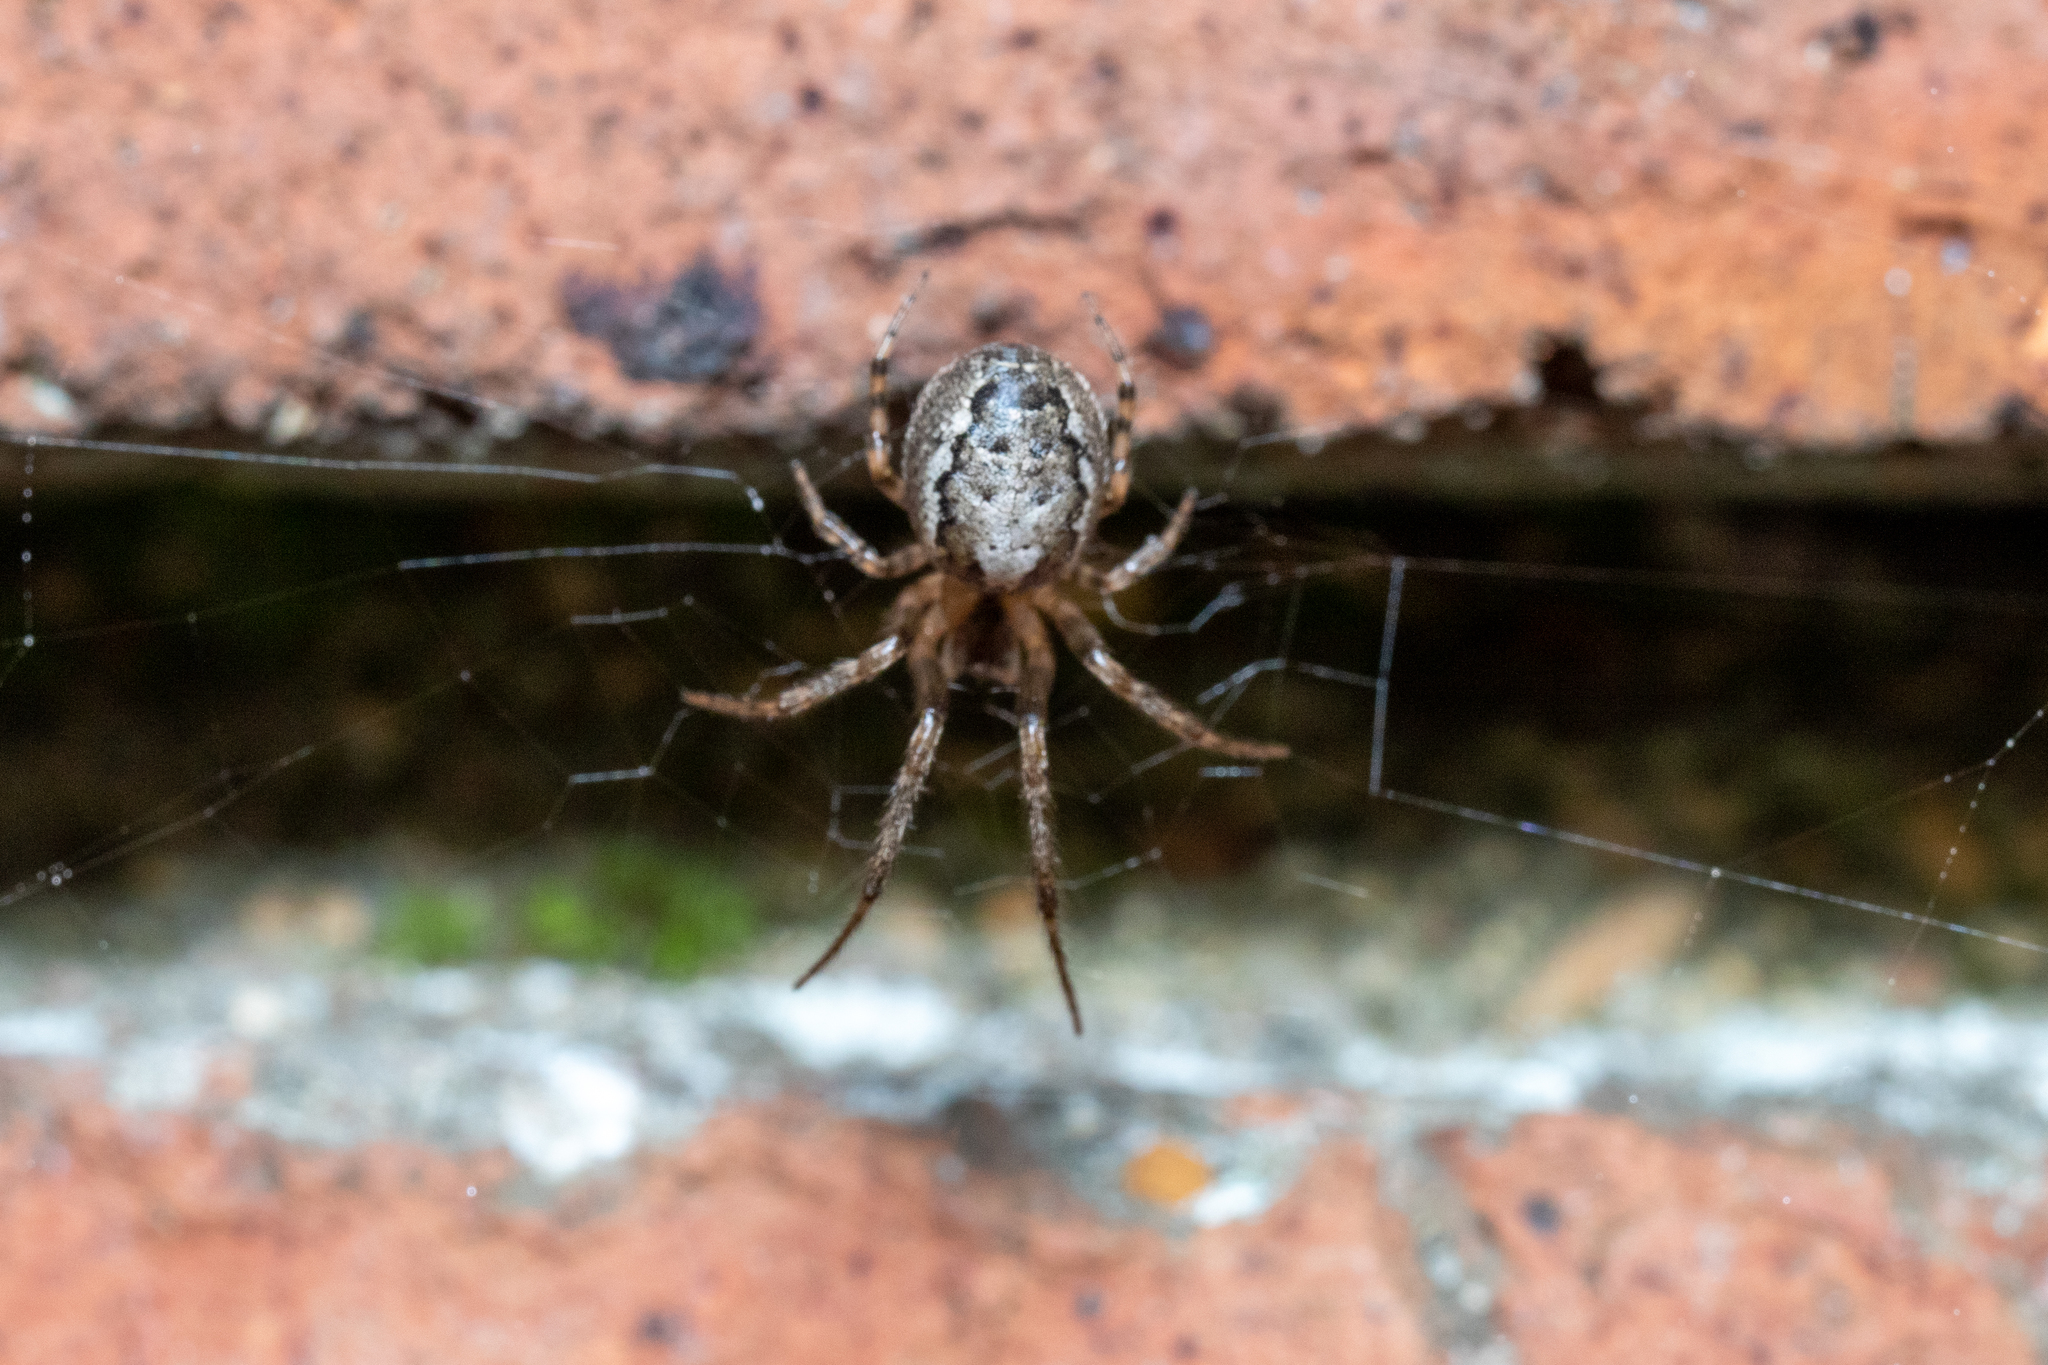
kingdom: Animalia
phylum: Arthropoda
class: Arachnida
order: Araneae
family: Araneidae
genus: Zygiella
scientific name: Zygiella x-notata
